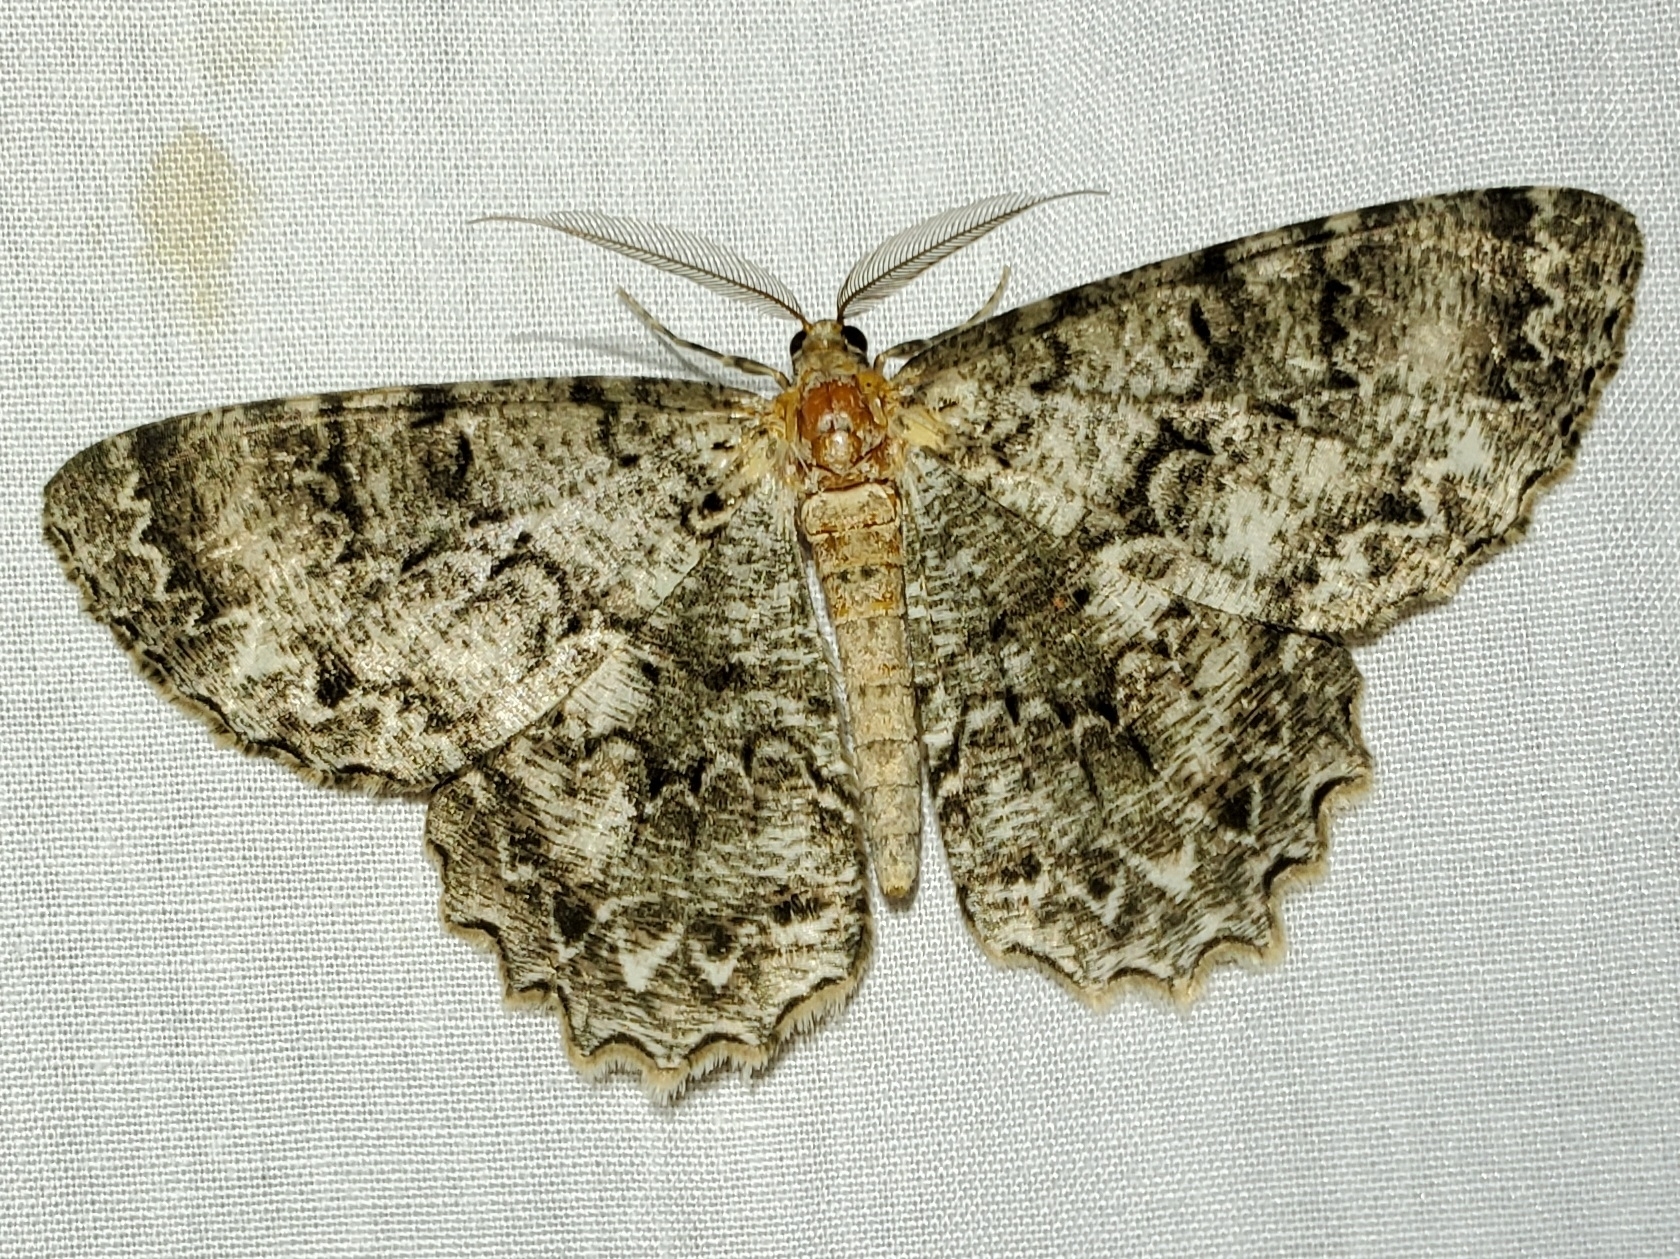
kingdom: Animalia
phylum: Arthropoda
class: Insecta
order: Lepidoptera
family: Geometridae
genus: Epimecis
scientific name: Epimecis hortaria
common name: Tulip-tree beauty
